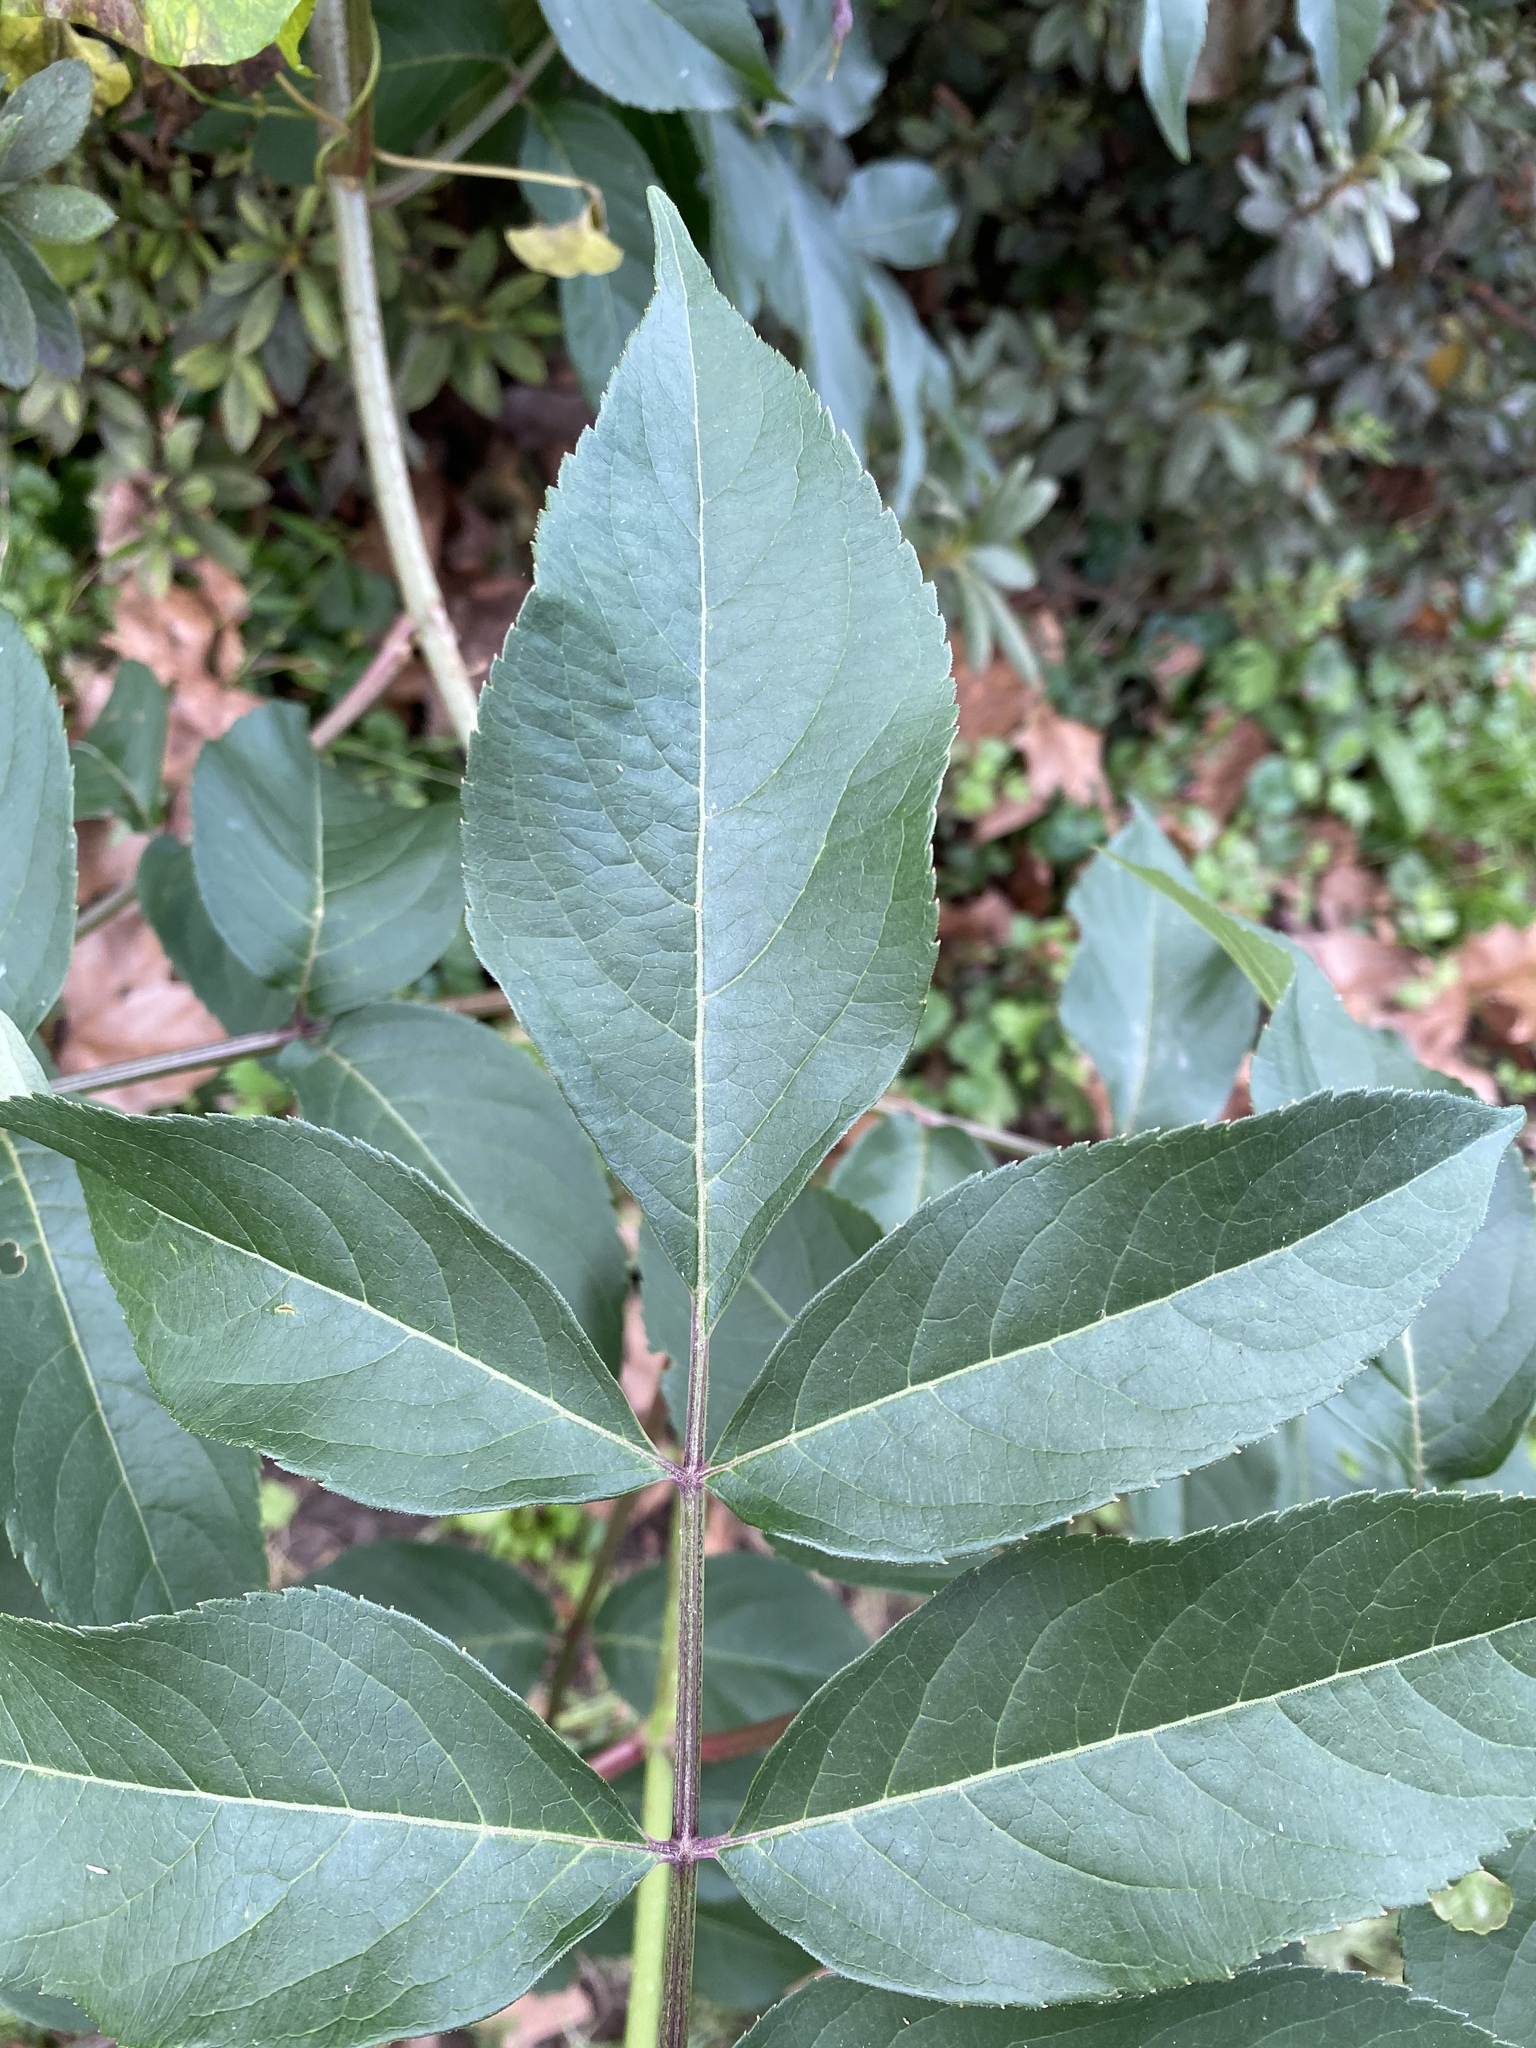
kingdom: Plantae
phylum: Tracheophyta
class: Magnoliopsida
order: Dipsacales
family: Viburnaceae
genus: Sambucus
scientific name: Sambucus canadensis
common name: American elder
